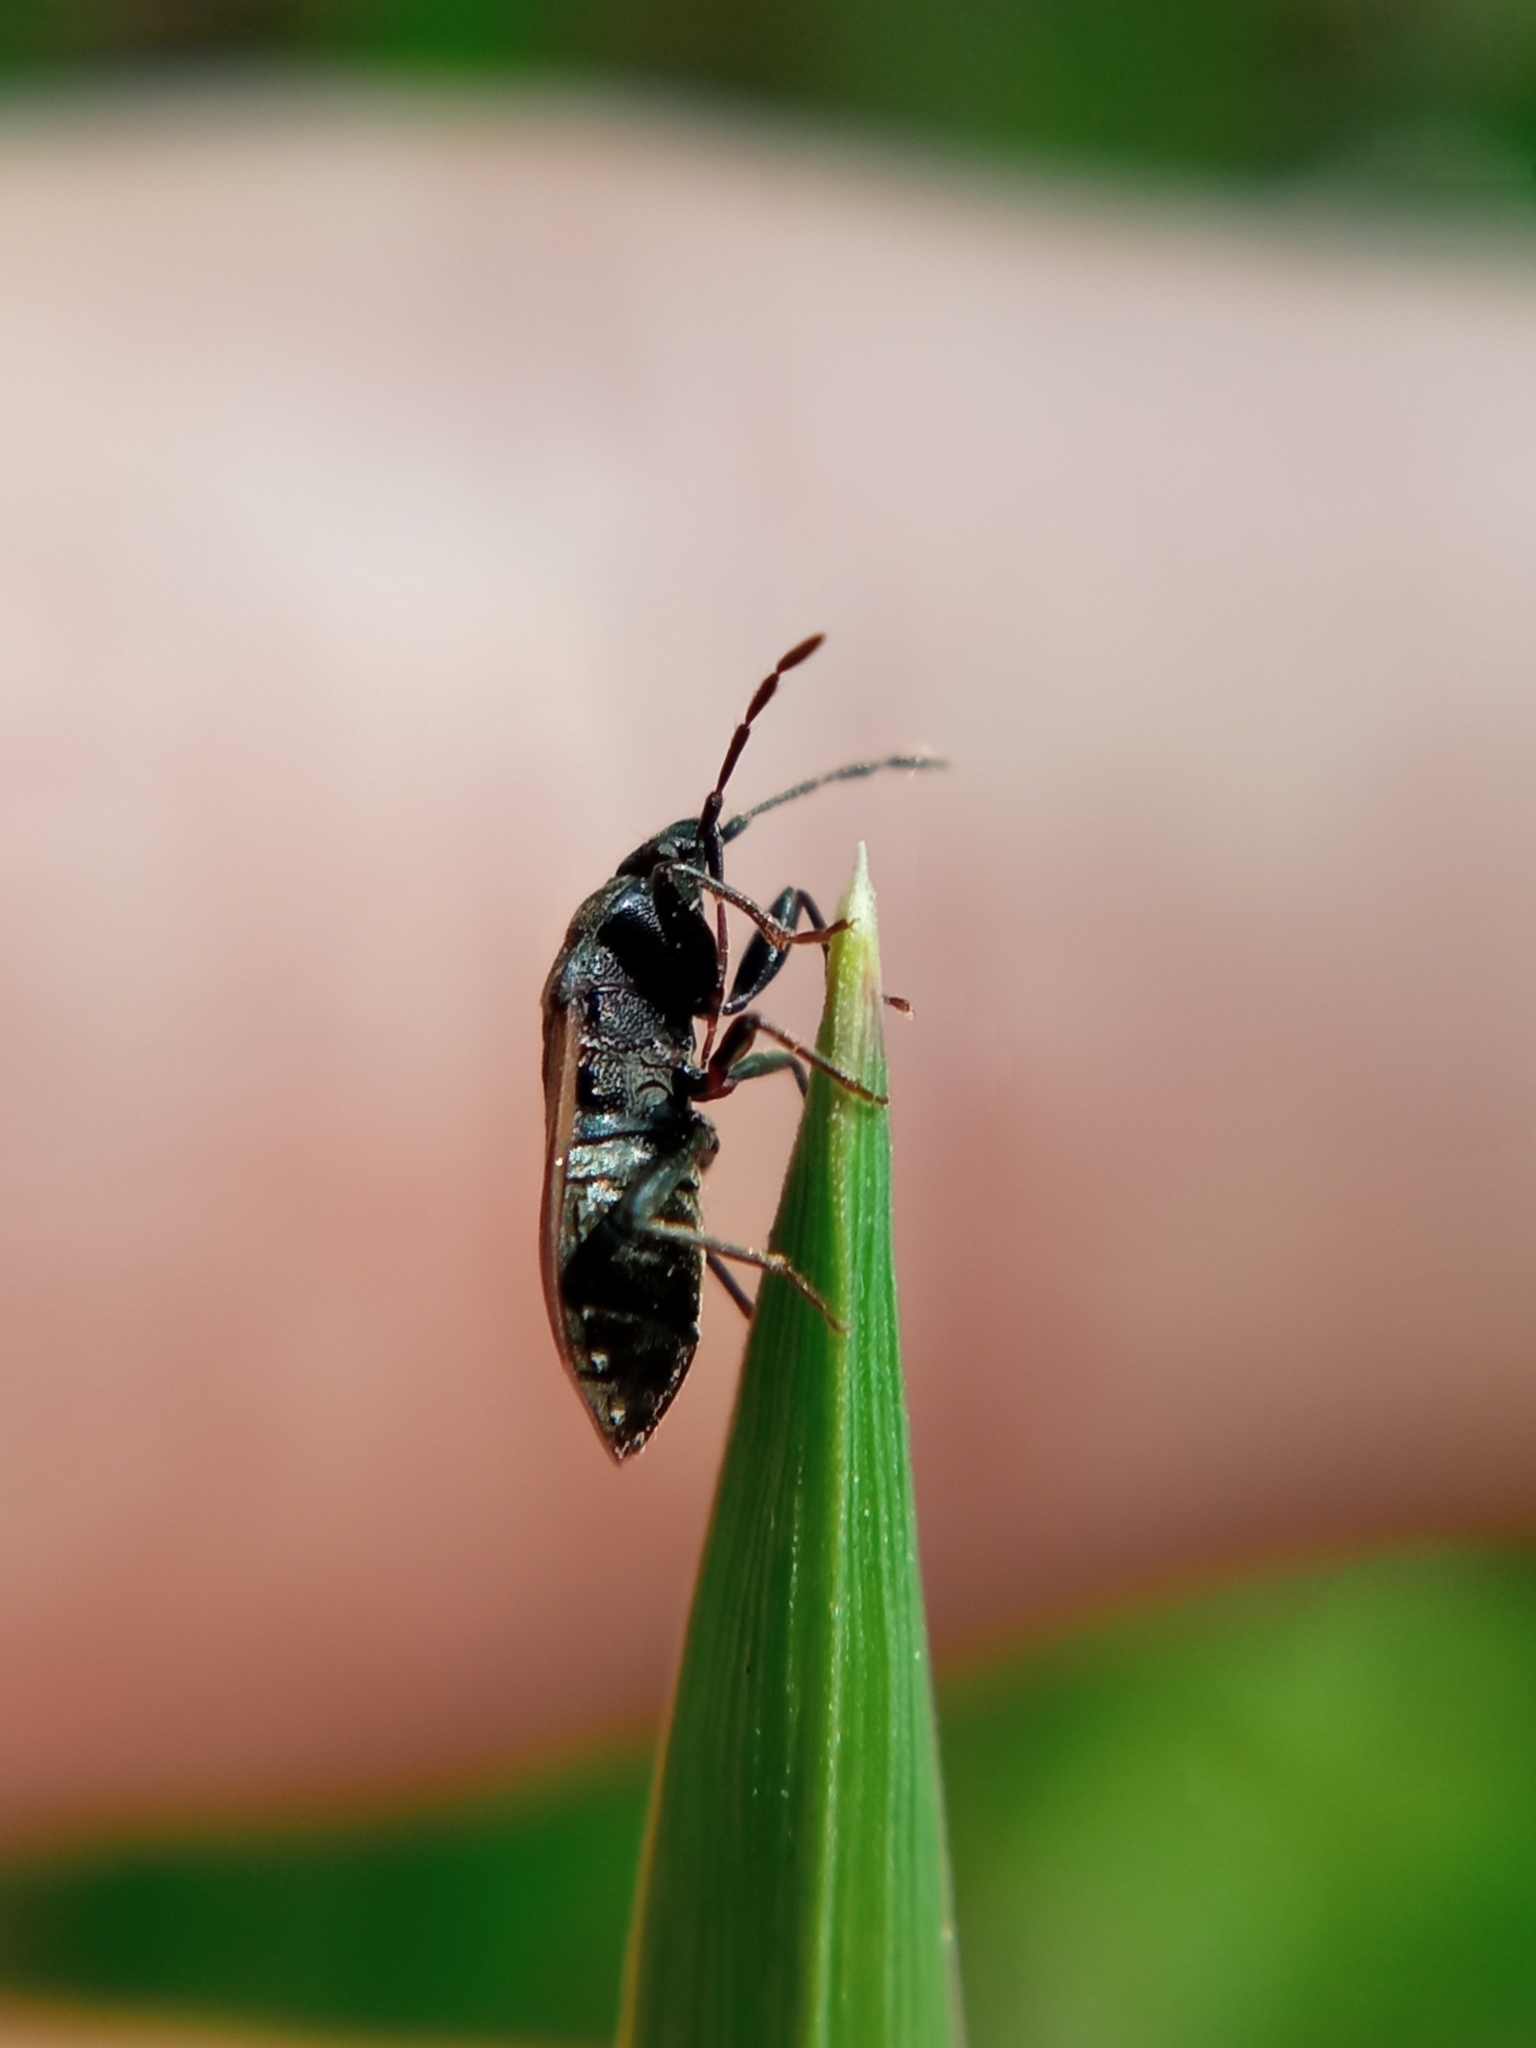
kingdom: Animalia
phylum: Arthropoda
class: Insecta
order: Hemiptera
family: Rhyparochromidae
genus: Drymus
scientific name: Drymus sylvaticus
